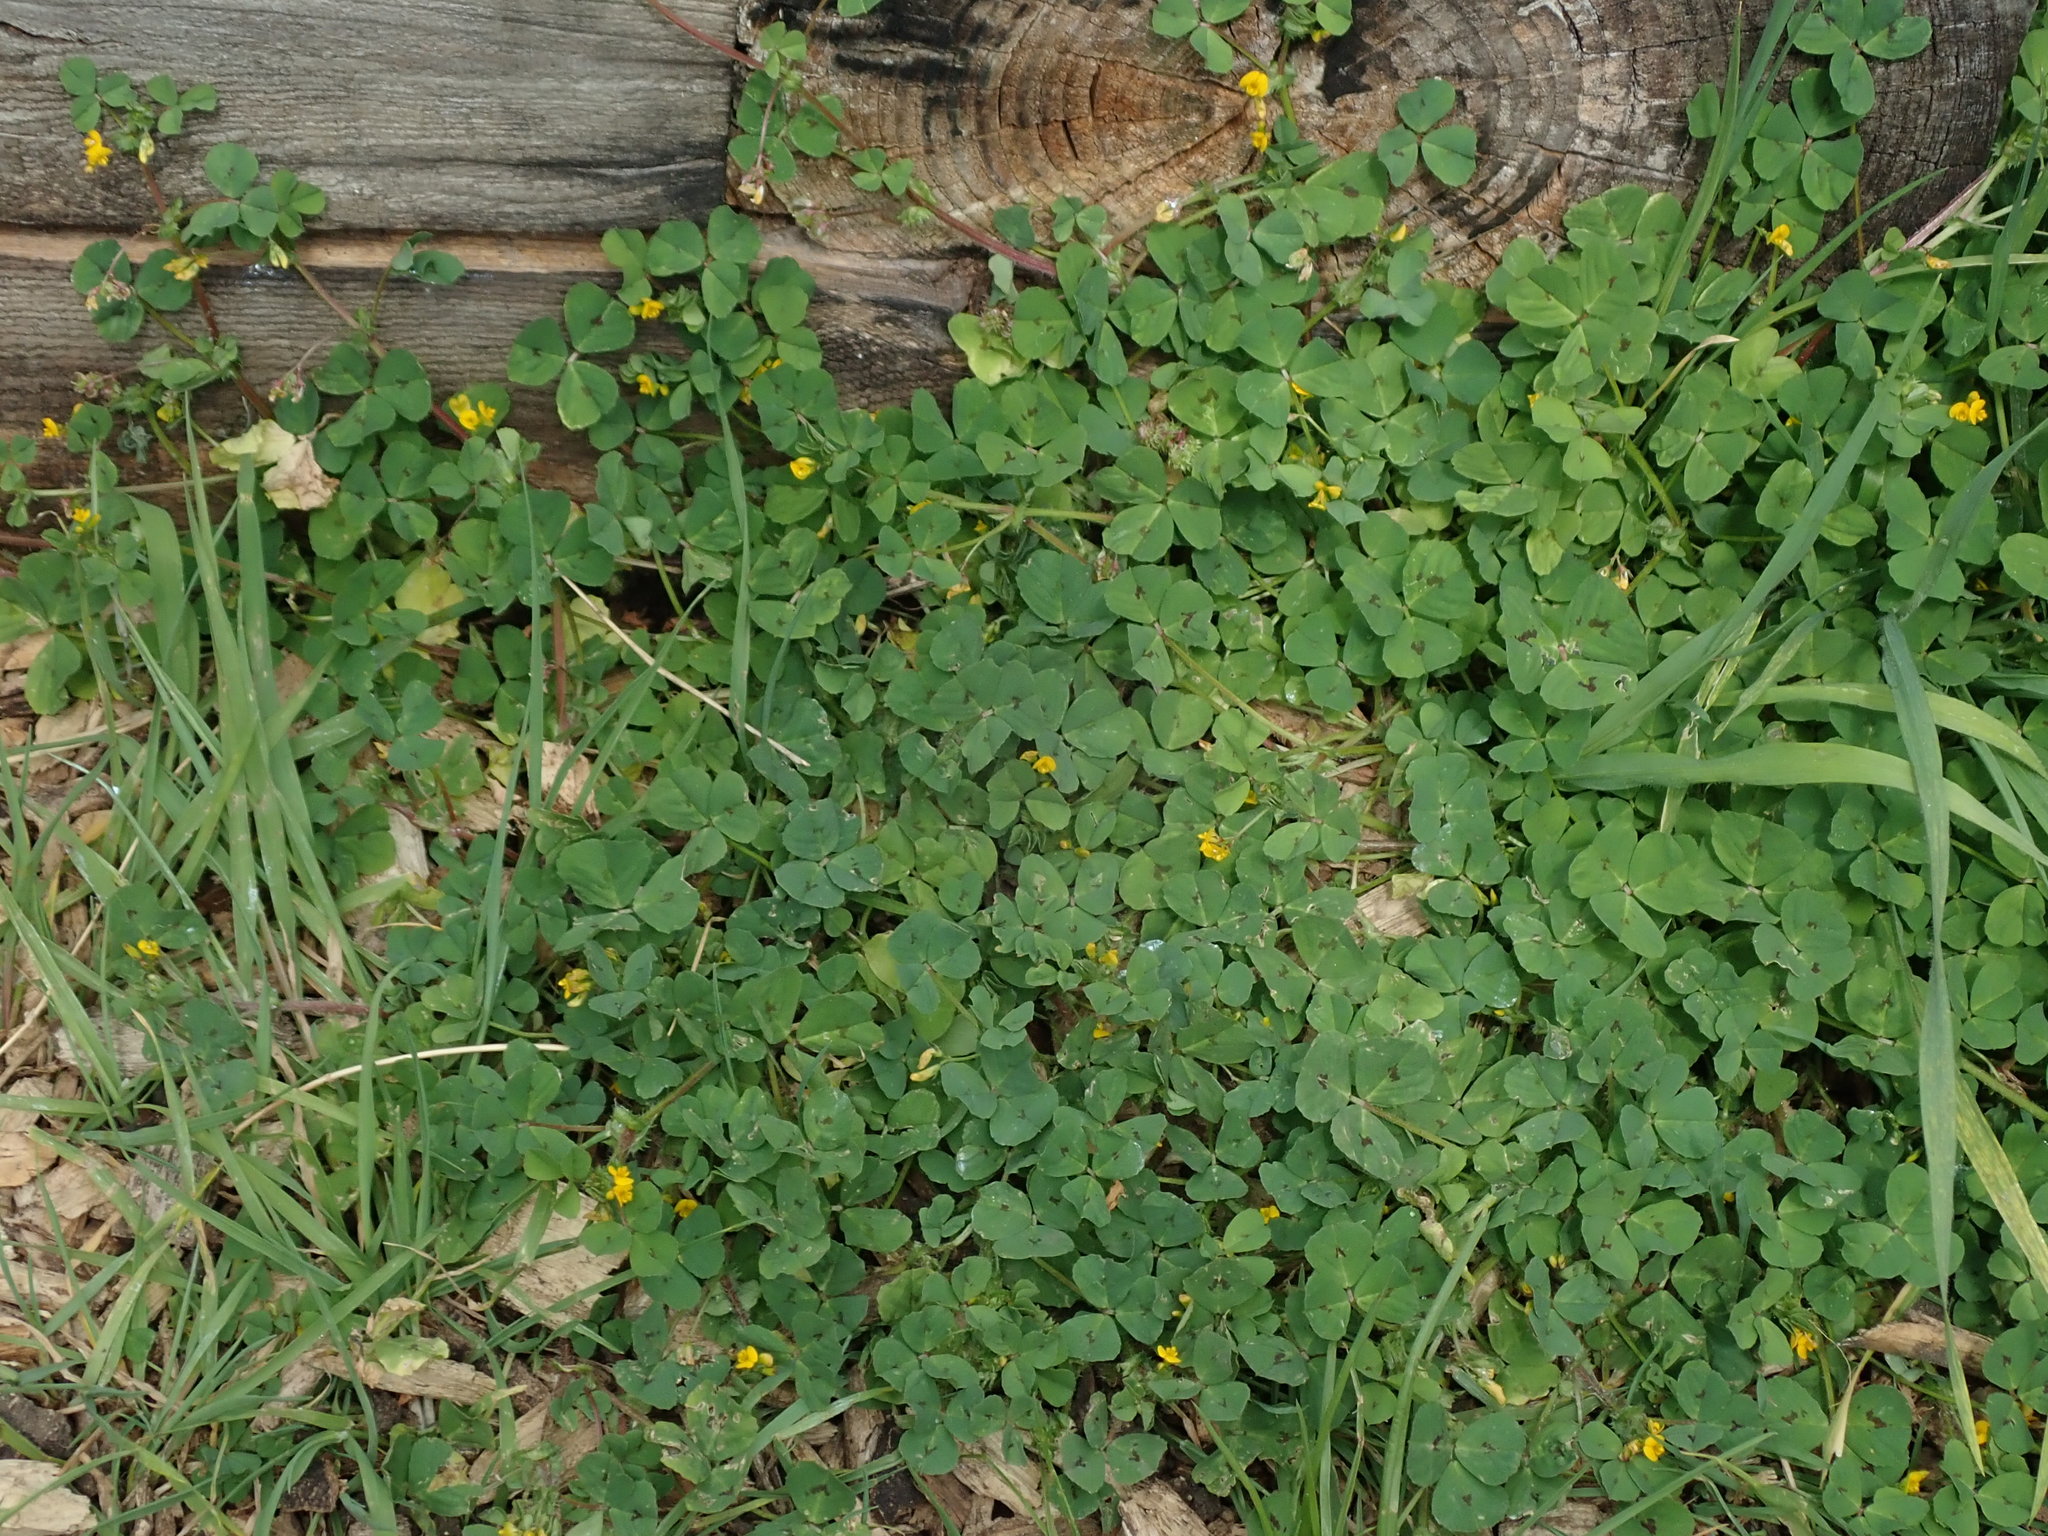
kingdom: Plantae
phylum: Tracheophyta
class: Magnoliopsida
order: Fabales
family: Fabaceae
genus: Medicago
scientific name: Medicago arabica
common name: Spotted medick
